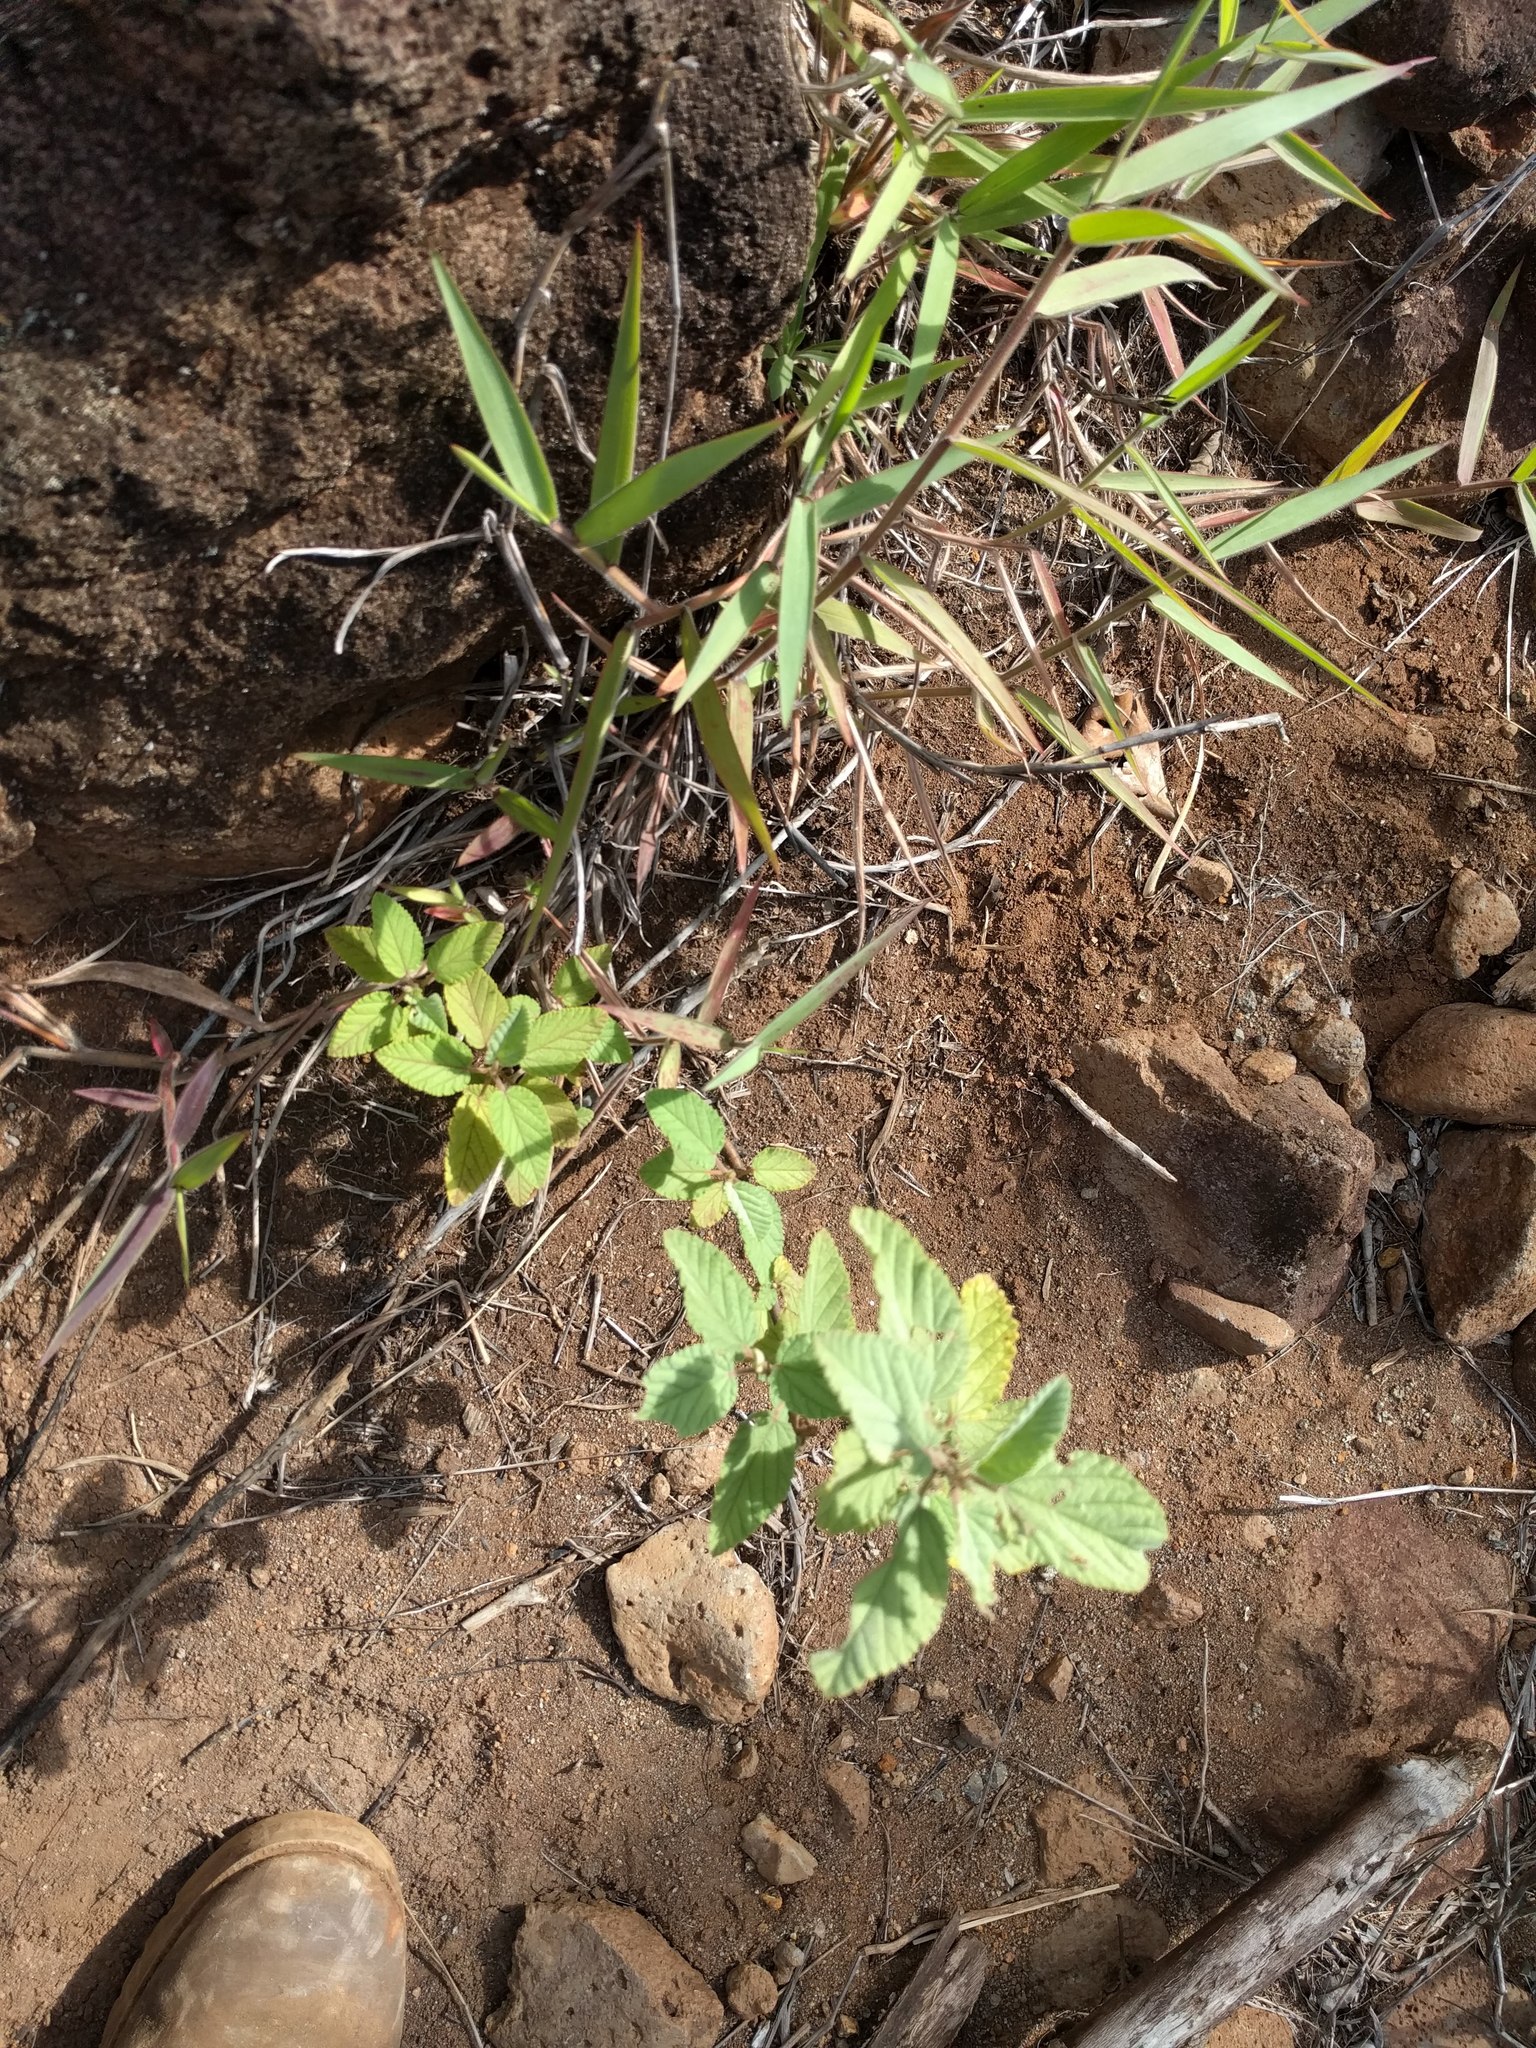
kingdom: Plantae
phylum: Tracheophyta
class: Magnoliopsida
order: Malvales
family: Malvaceae
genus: Waltheria
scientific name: Waltheria indica
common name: Leather-coat
